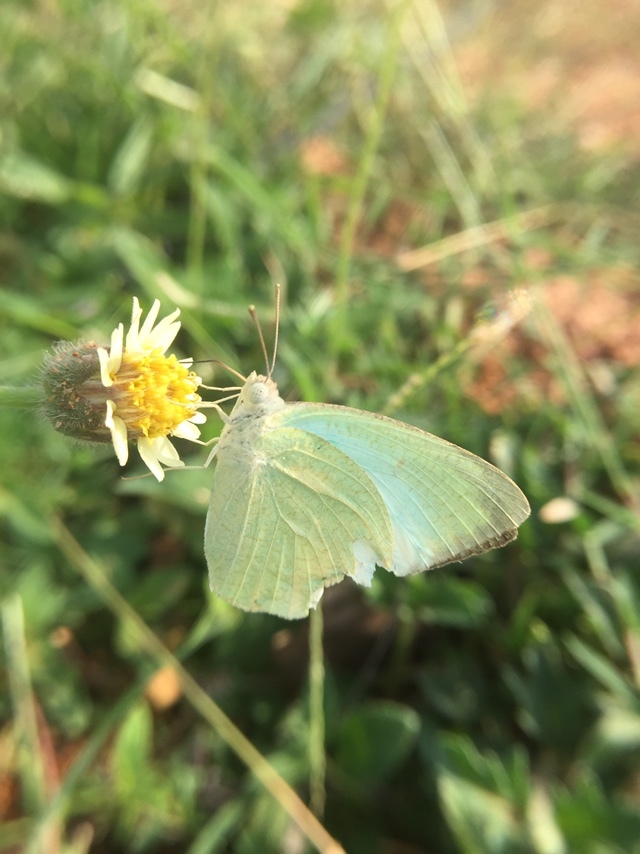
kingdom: Animalia
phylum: Arthropoda
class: Insecta
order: Lepidoptera
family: Pieridae
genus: Catopsilia
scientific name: Catopsilia pyranthe
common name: Mottled emigrant
